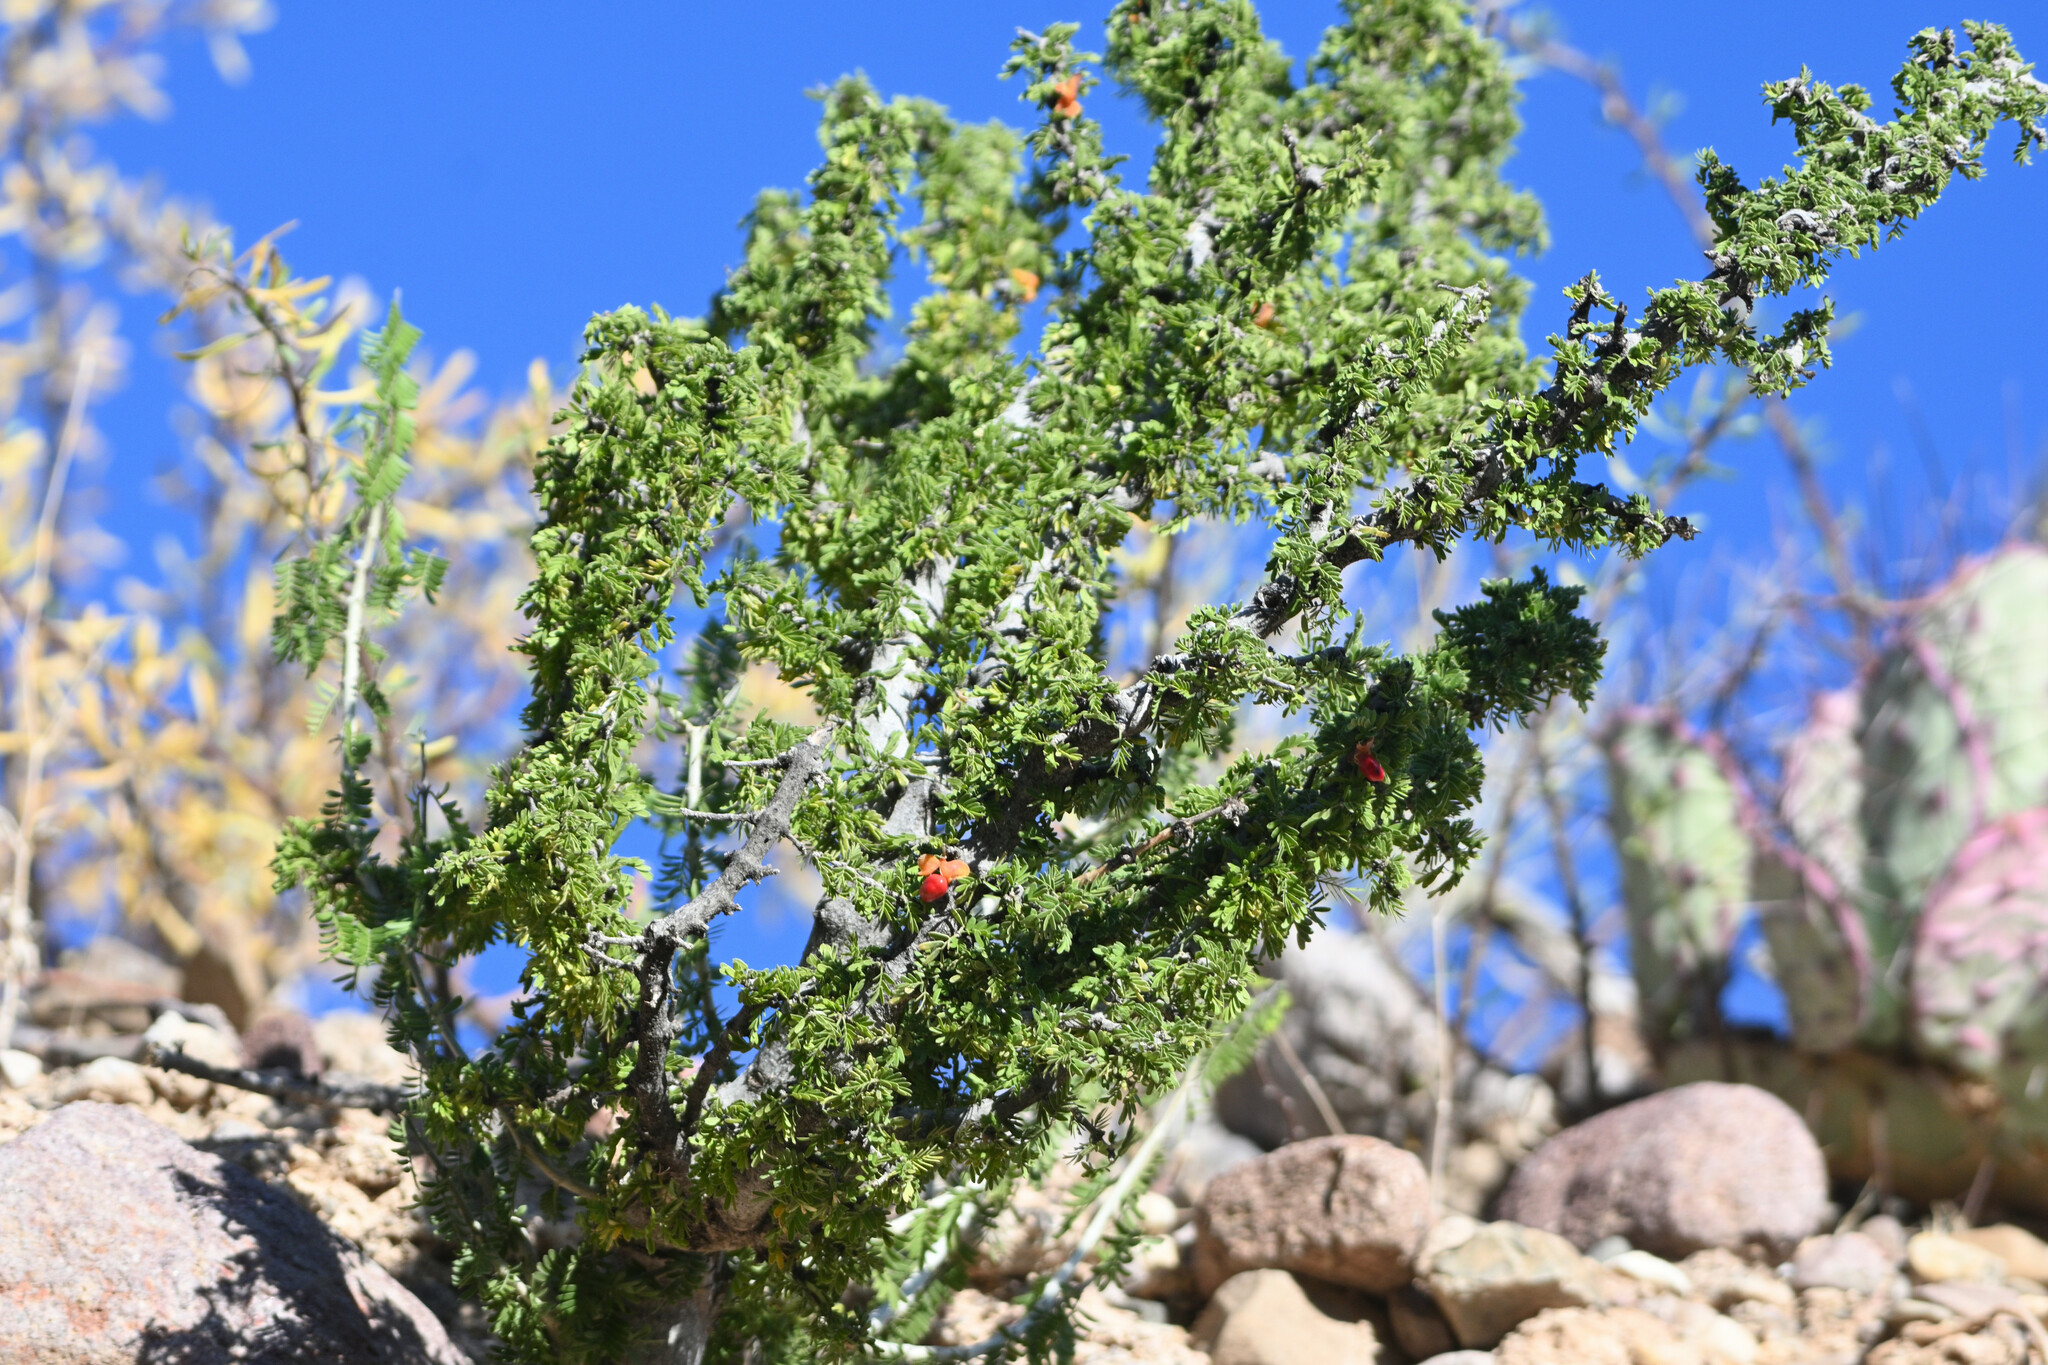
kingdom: Plantae
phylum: Tracheophyta
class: Magnoliopsida
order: Zygophyllales
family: Zygophyllaceae
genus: Porlieria
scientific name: Porlieria angustifolia
